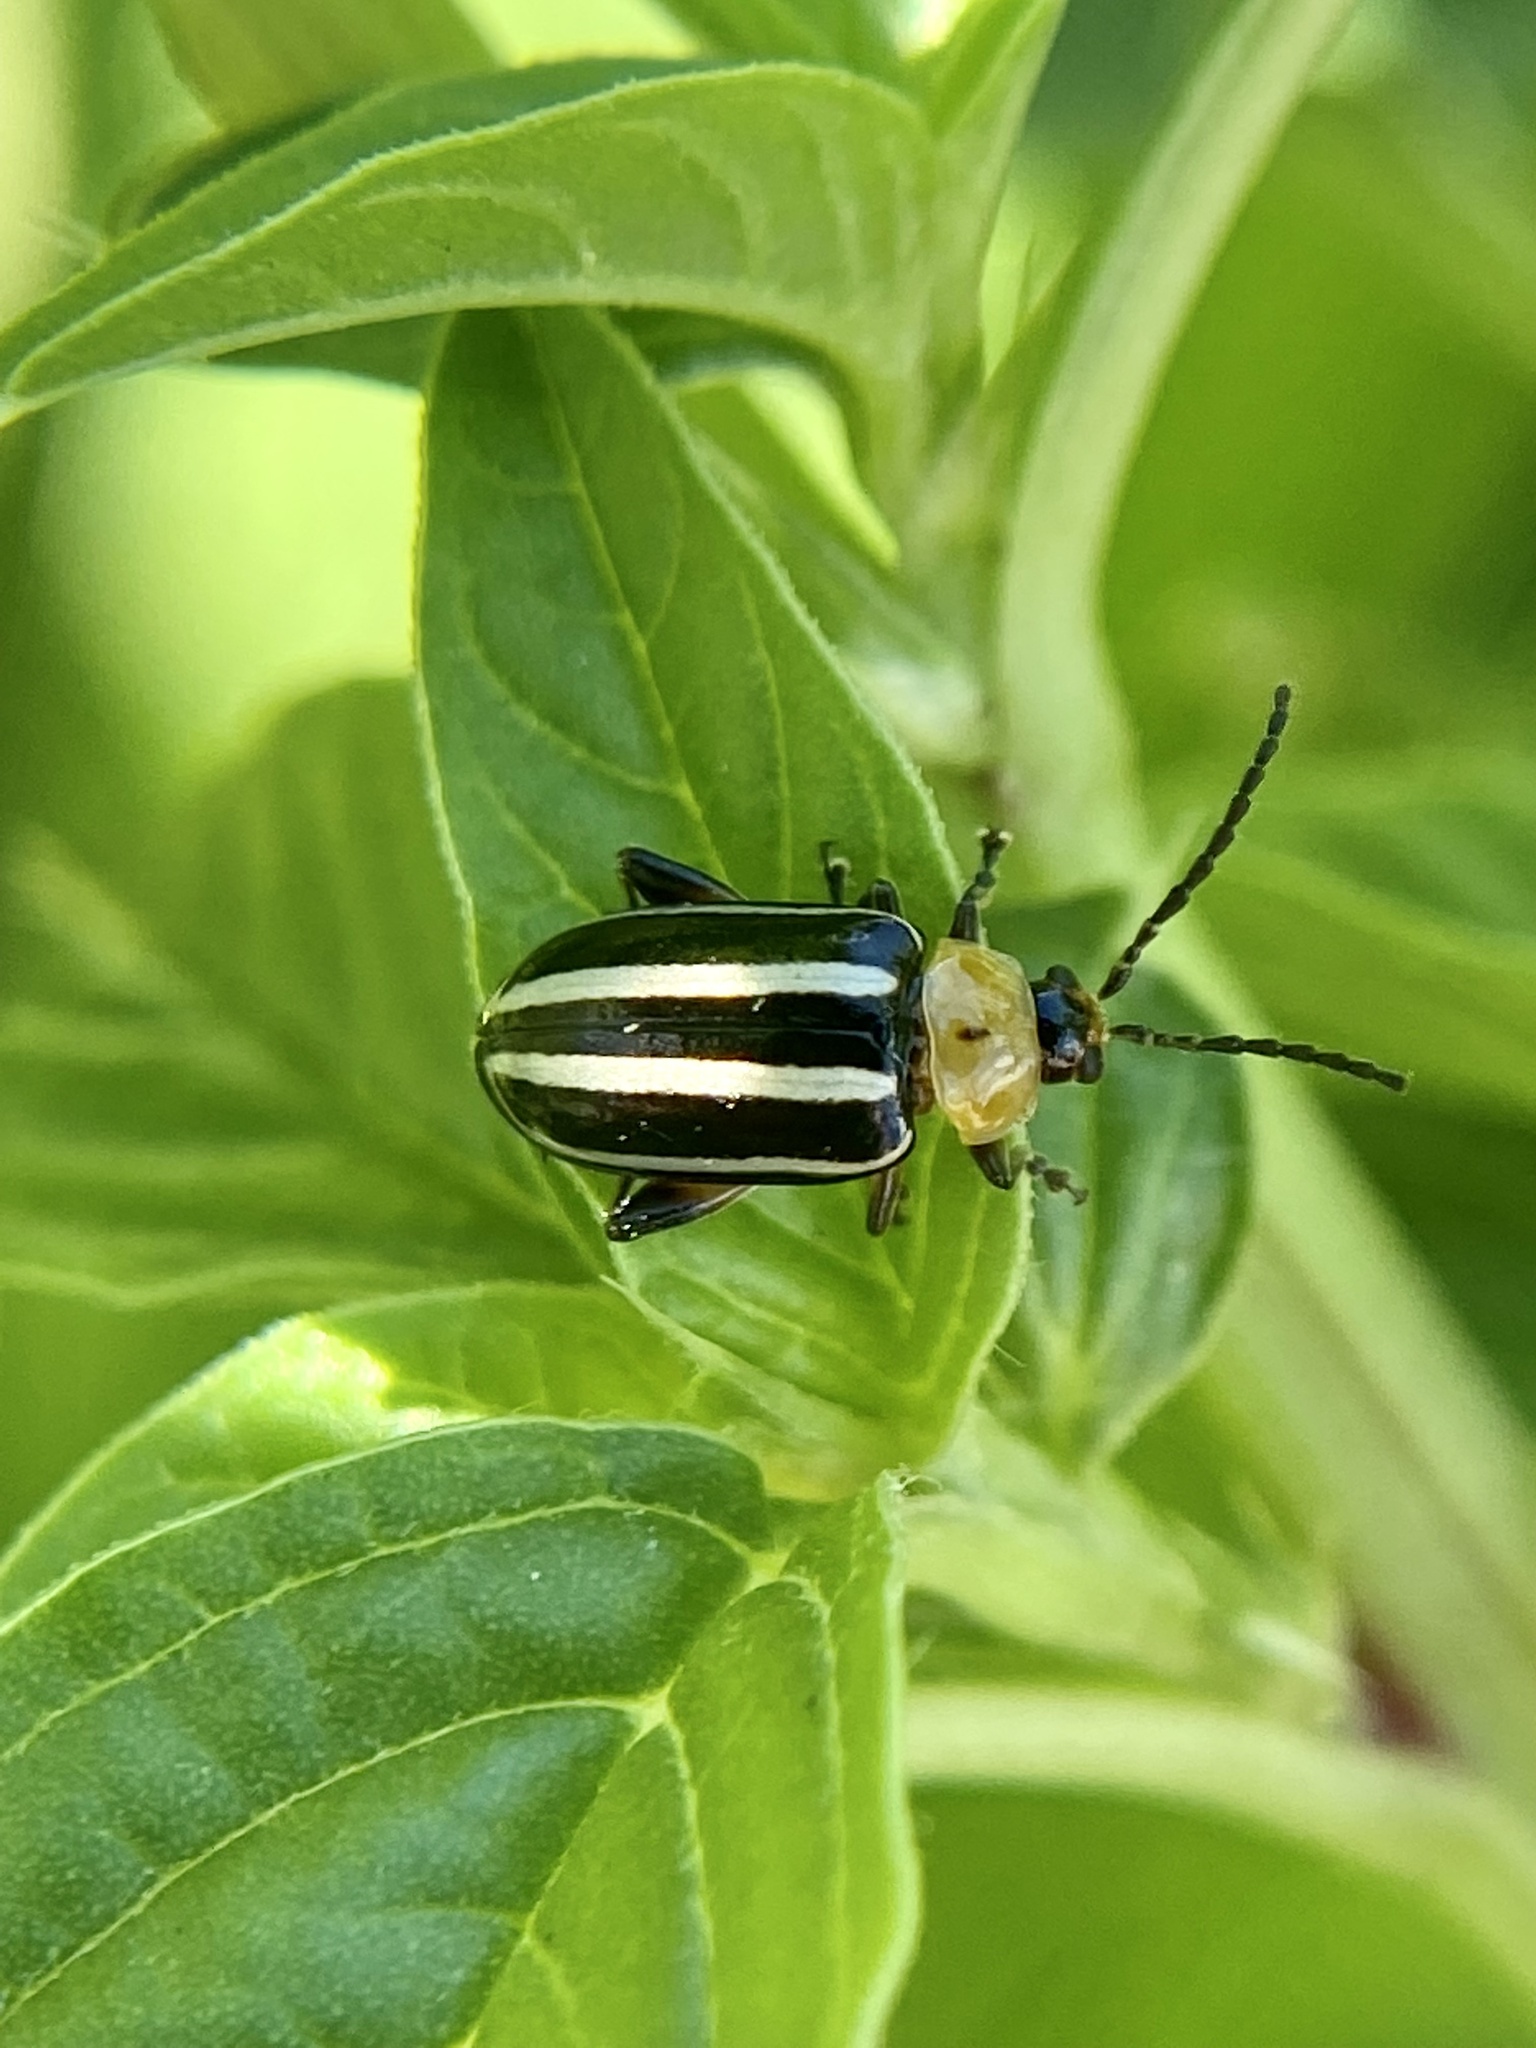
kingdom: Animalia
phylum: Arthropoda
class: Insecta
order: Coleoptera
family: Chrysomelidae
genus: Disonycha
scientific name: Disonycha glabrata
